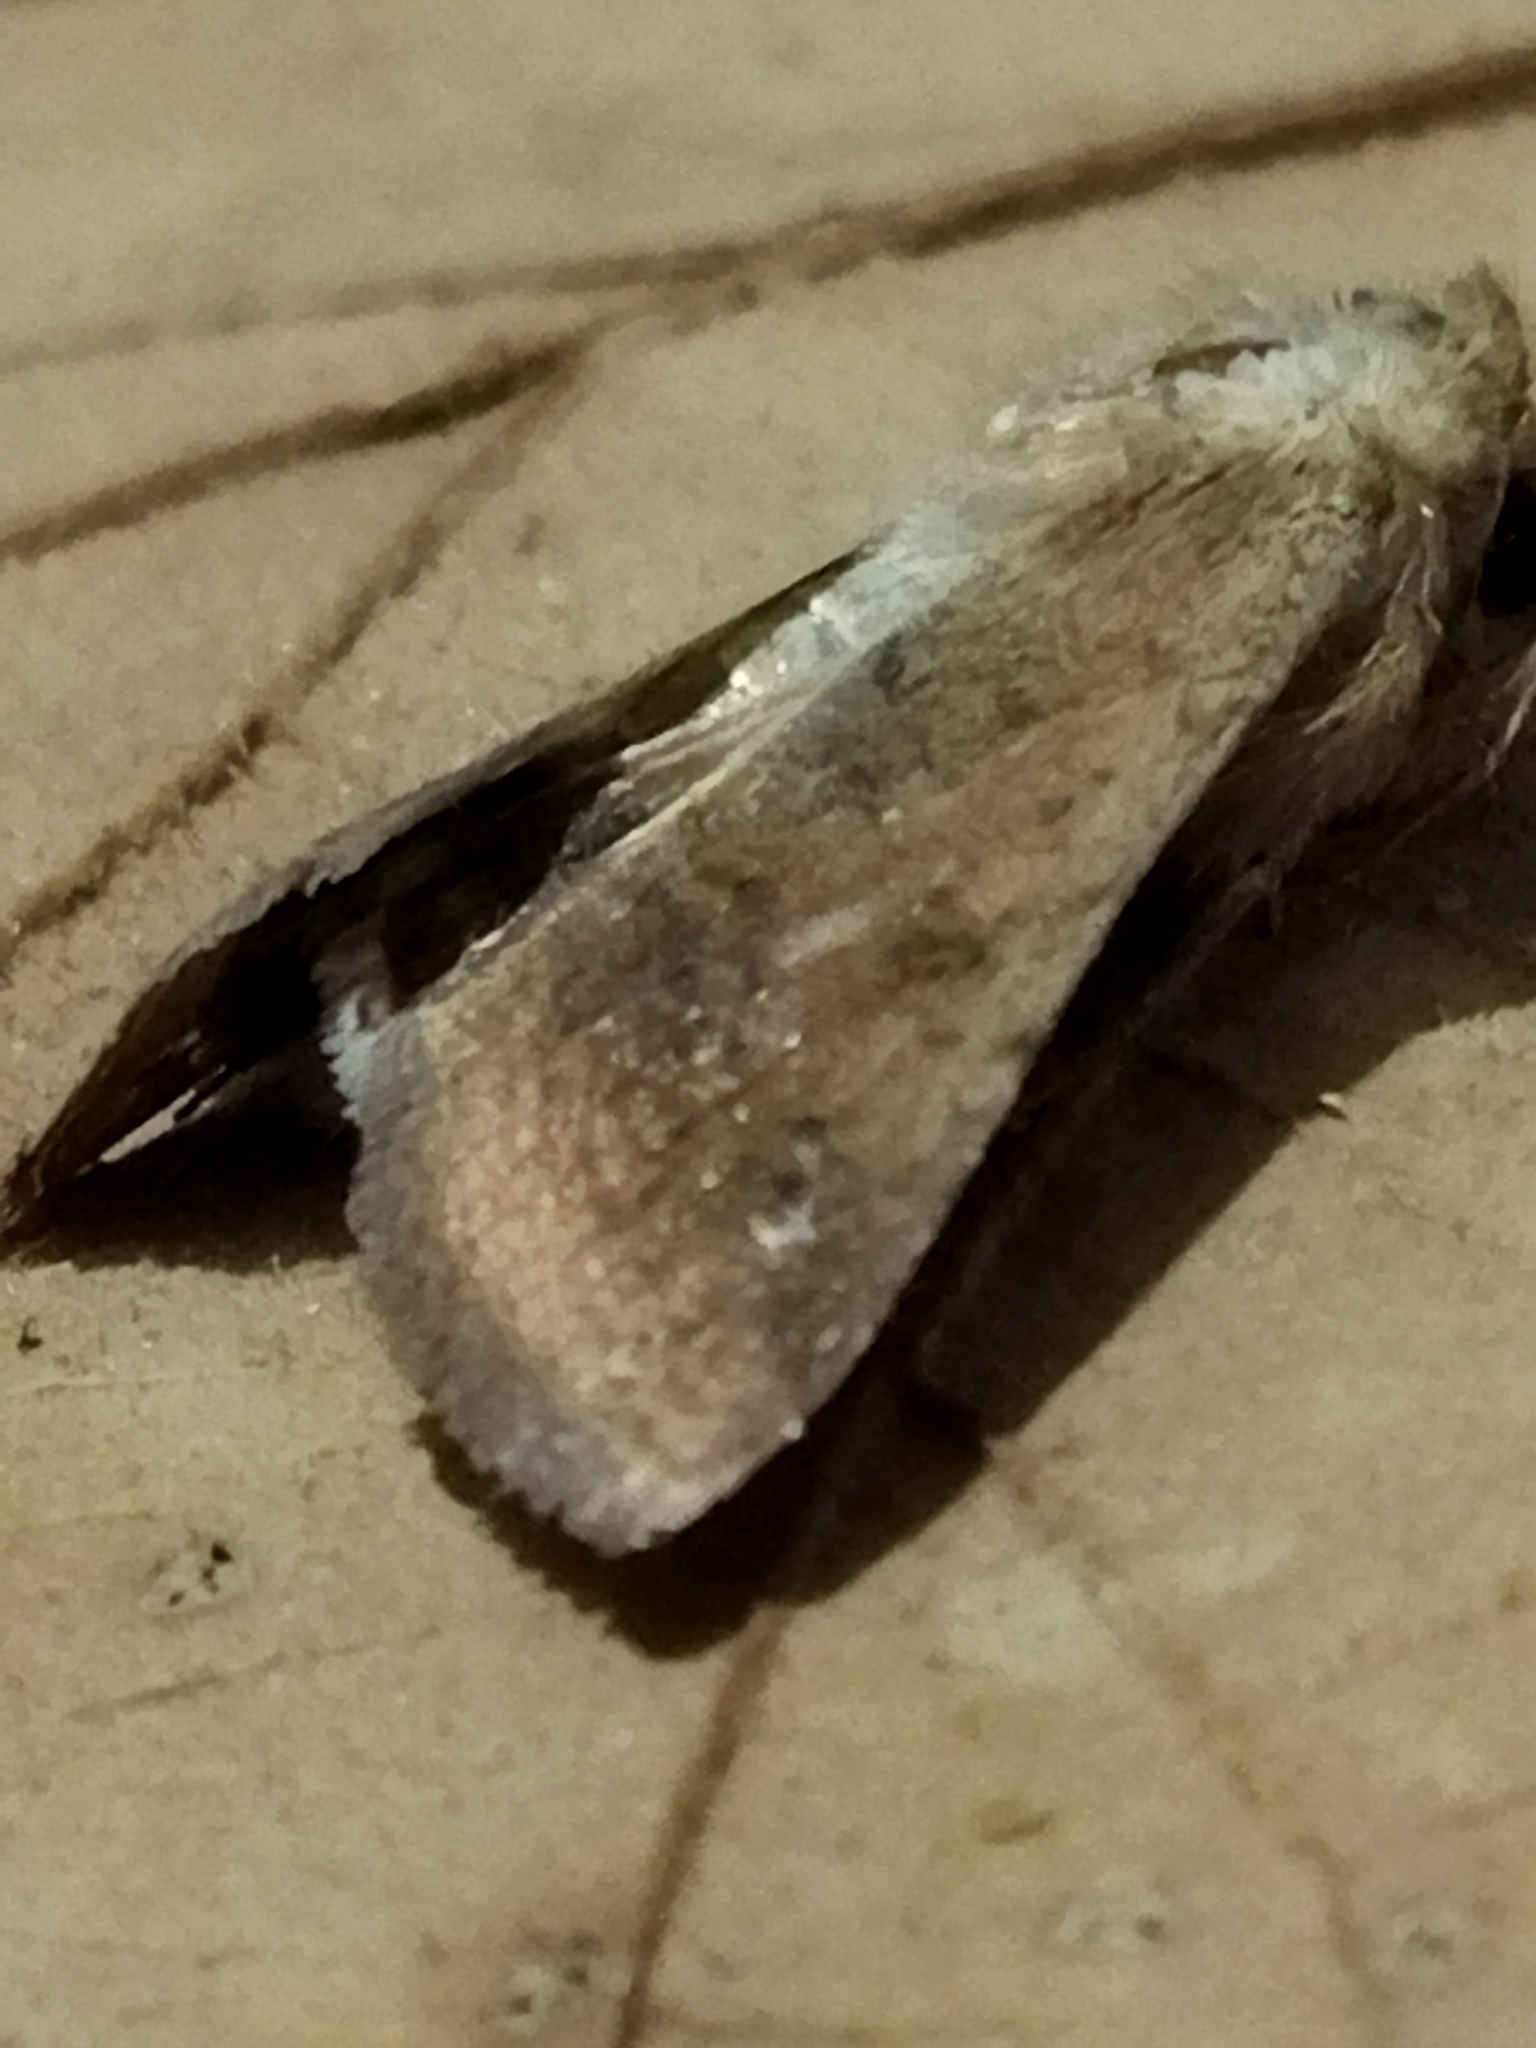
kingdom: Animalia
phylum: Arthropoda
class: Insecta
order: Lepidoptera
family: Noctuidae
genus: Helicoverpa
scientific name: Helicoverpa armigera
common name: Cotton bollworm
